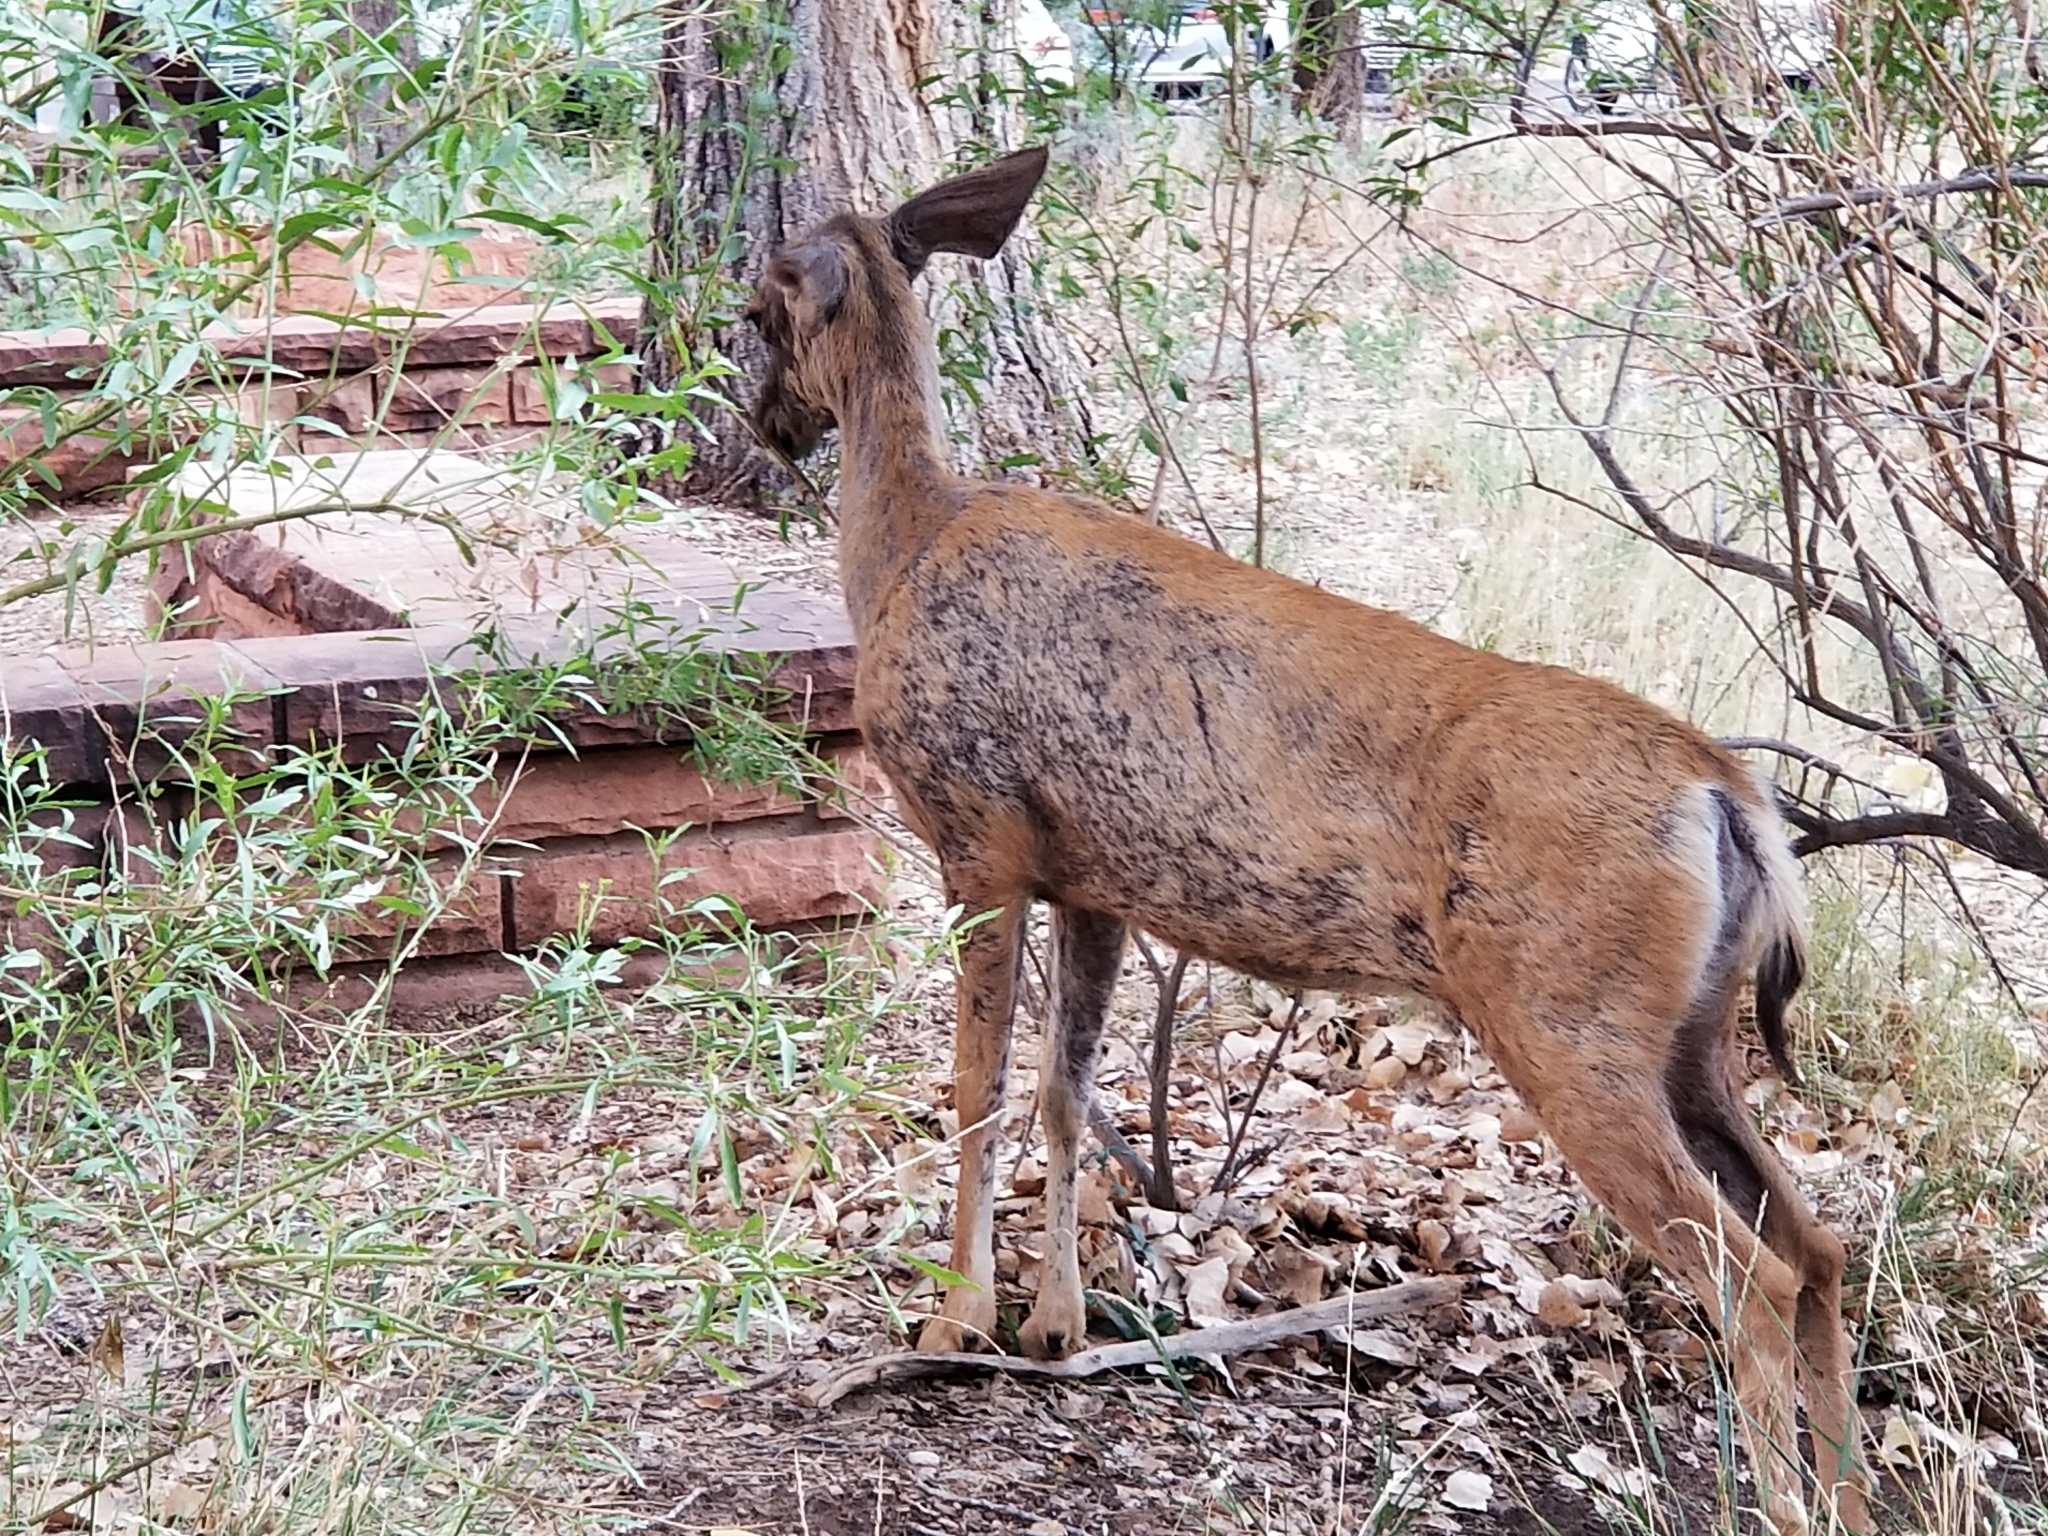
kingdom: Animalia
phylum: Chordata
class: Mammalia
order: Artiodactyla
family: Cervidae
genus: Odocoileus
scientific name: Odocoileus hemionus
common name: Mule deer
